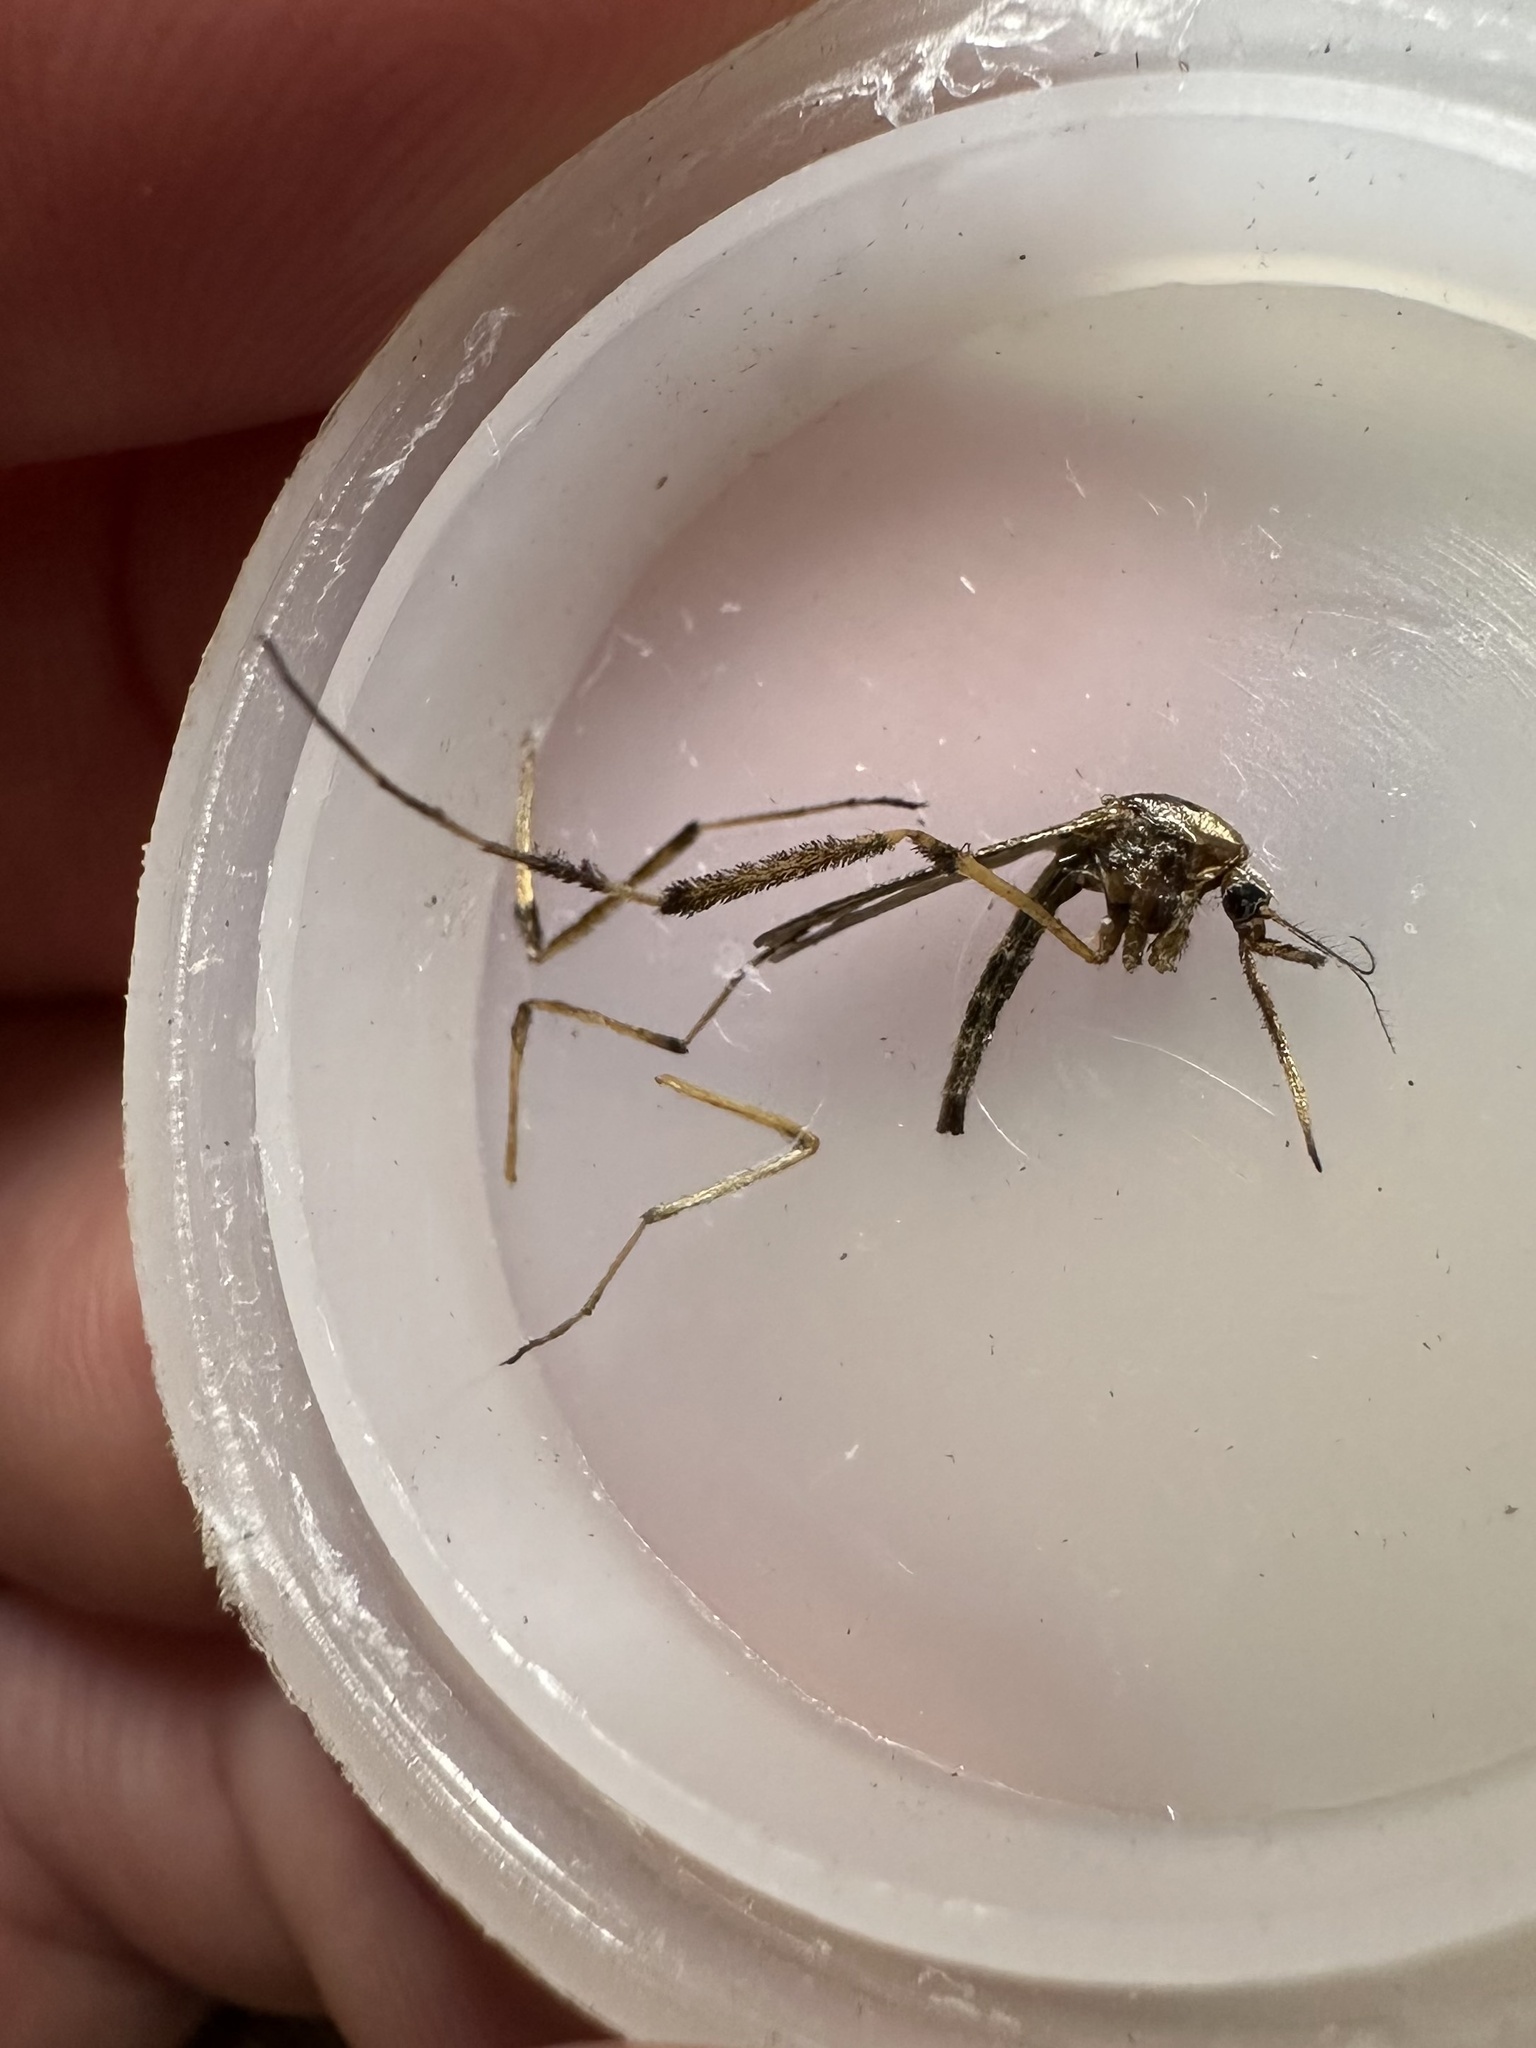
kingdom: Animalia
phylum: Arthropoda
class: Insecta
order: Diptera
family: Culicidae
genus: Psorophora
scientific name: Psorophora ciliata
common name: Gallinipper
